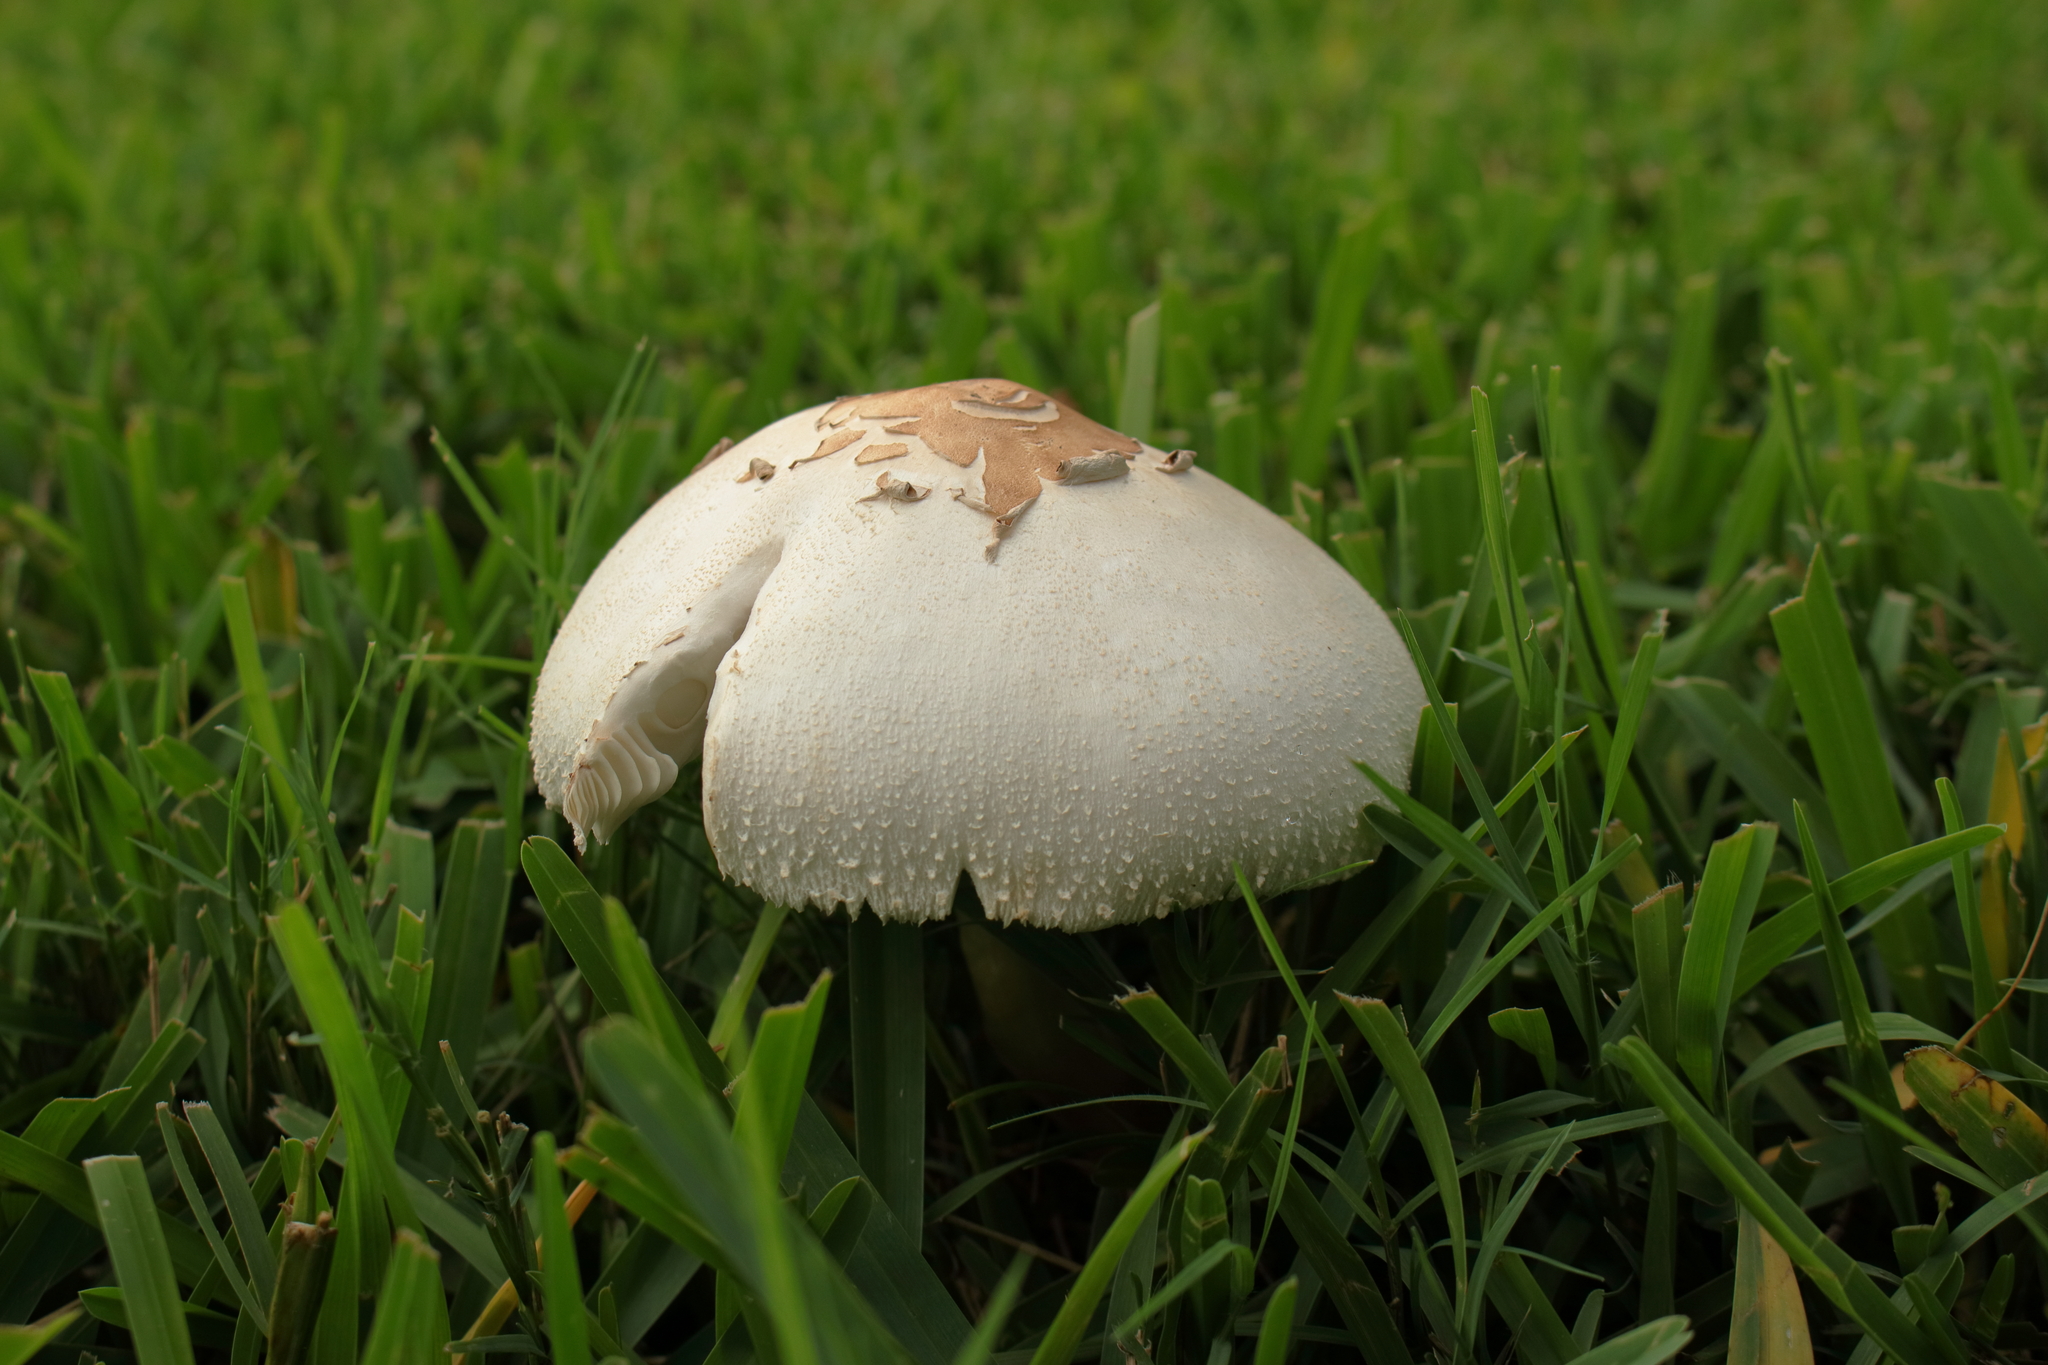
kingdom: Fungi
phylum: Basidiomycota
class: Agaricomycetes
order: Agaricales
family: Agaricaceae
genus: Chlorophyllum
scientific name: Chlorophyllum molybdites
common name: False parasol
